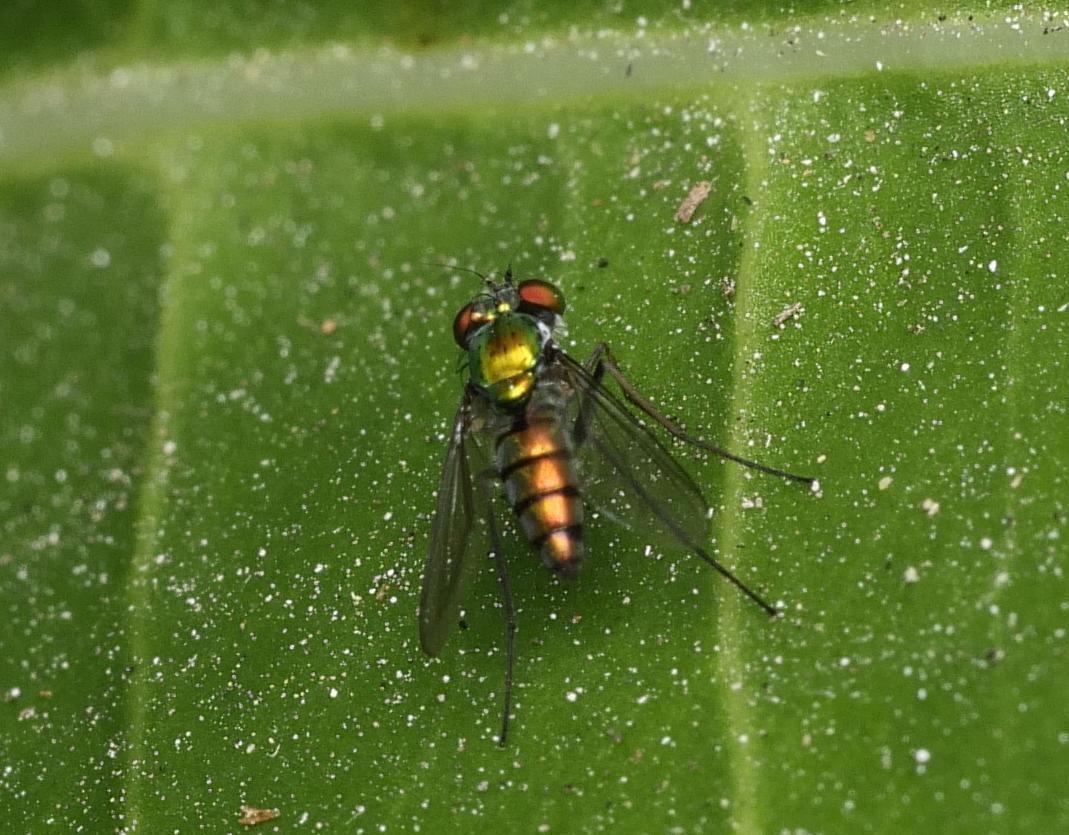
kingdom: Animalia
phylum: Arthropoda
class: Insecta
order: Diptera
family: Dolichopodidae
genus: Condylostylus
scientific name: Condylostylus longicornis
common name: Long-legged fly
